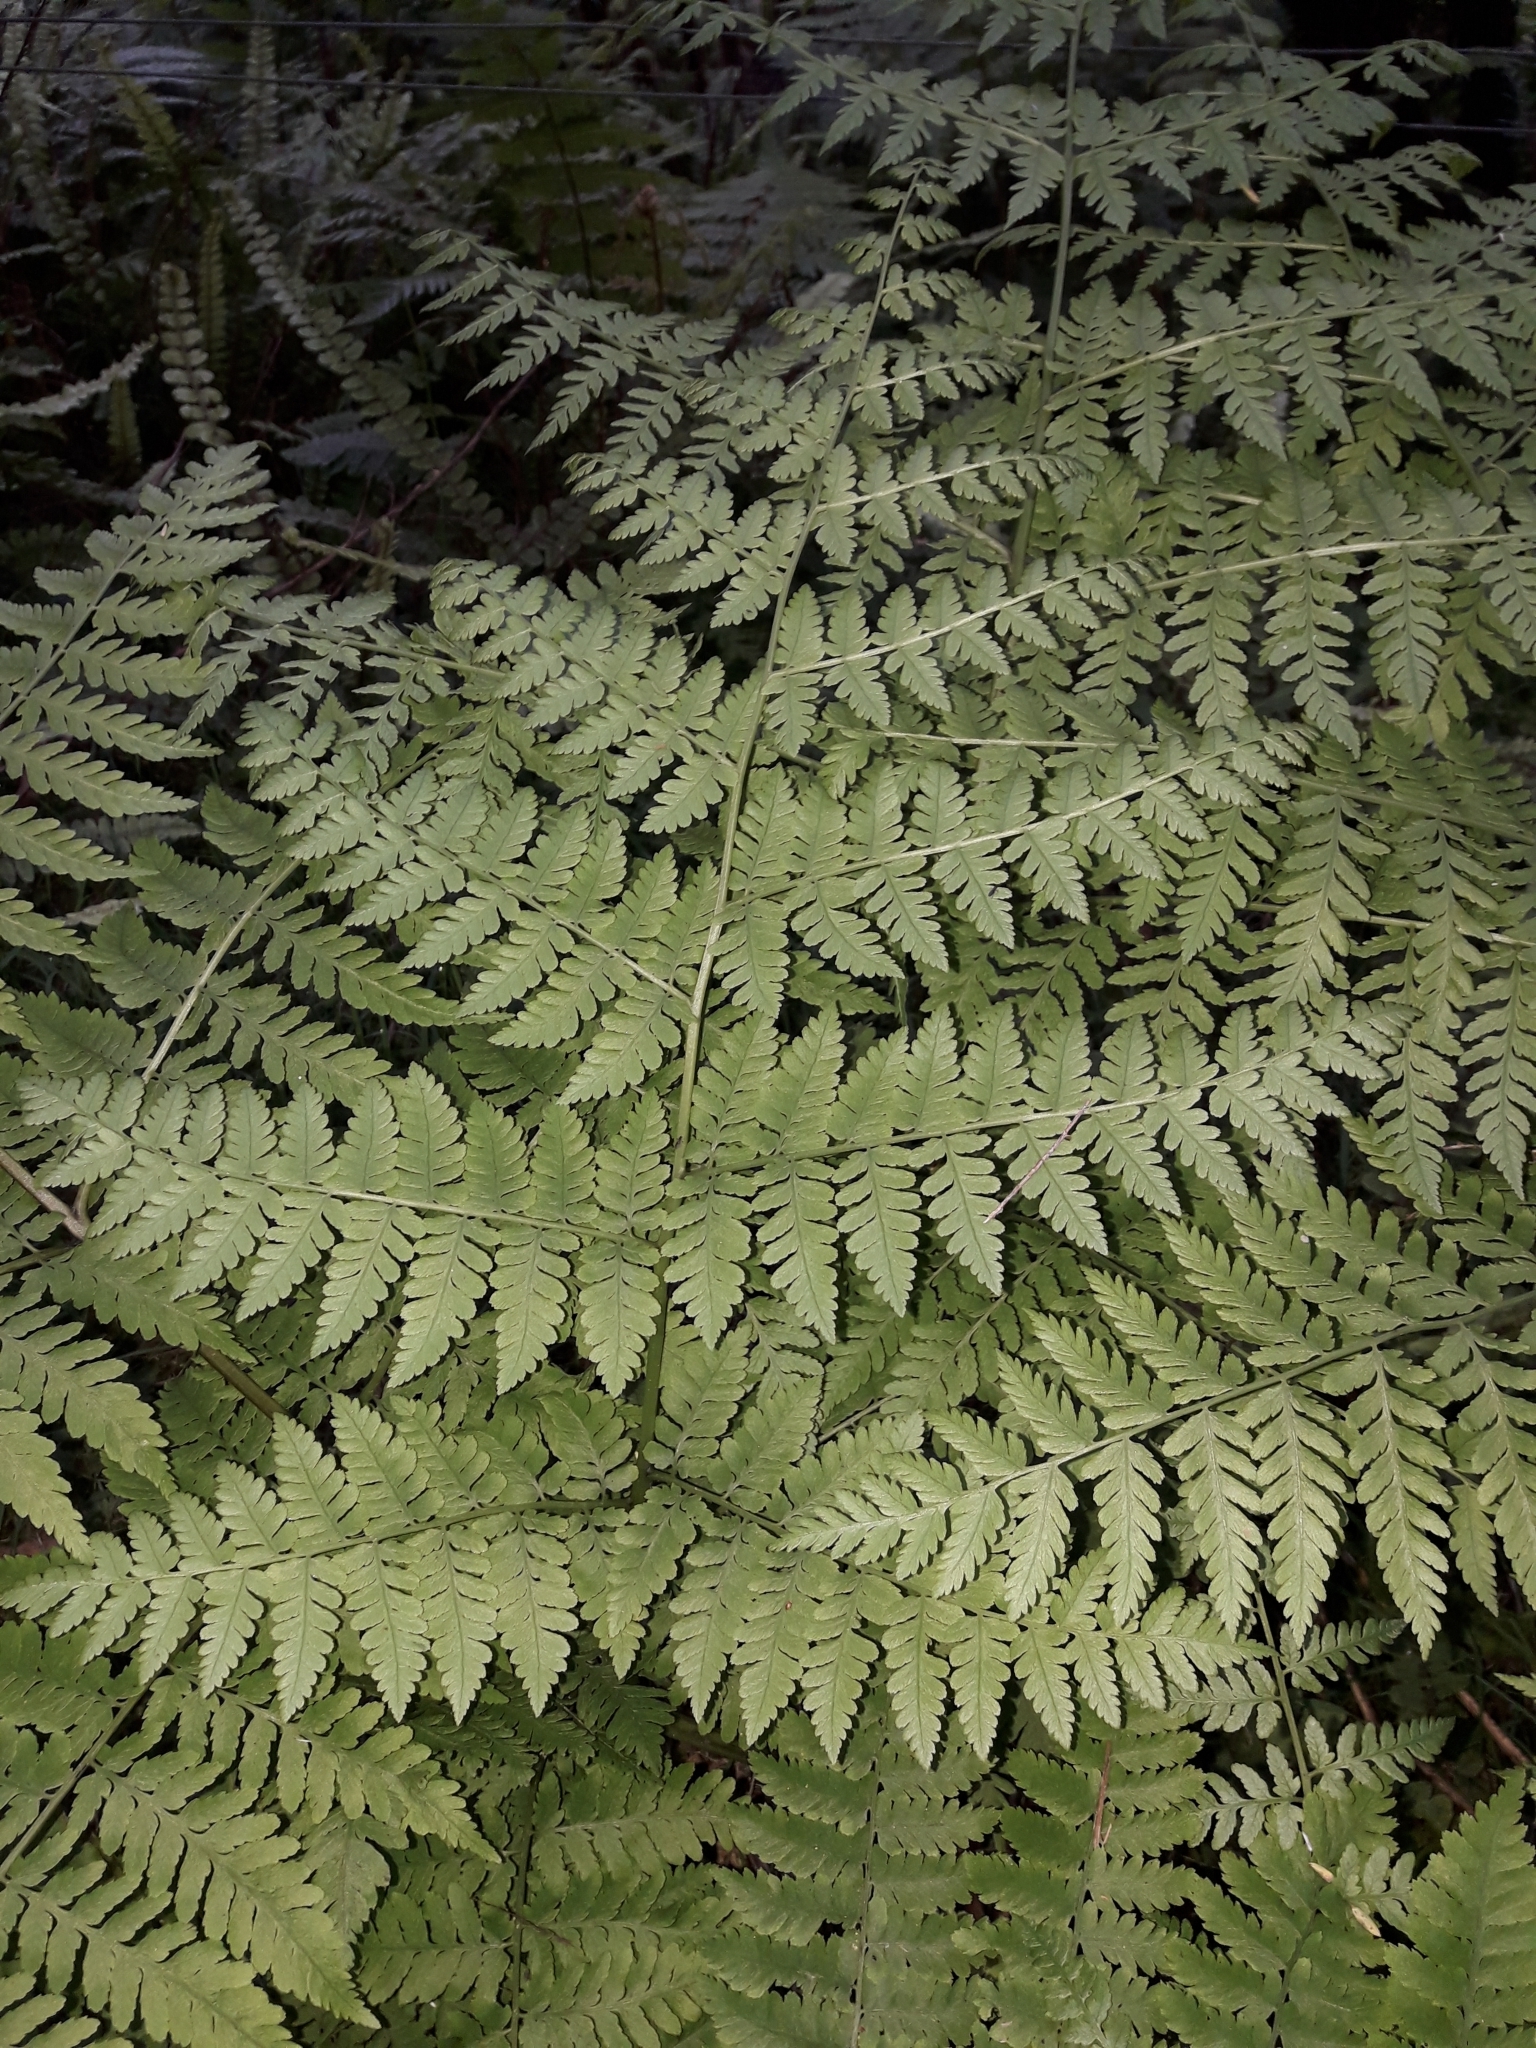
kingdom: Plantae
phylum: Tracheophyta
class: Polypodiopsida
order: Polypodiales
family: Athyriaceae
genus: Diplazium
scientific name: Diplazium australe
